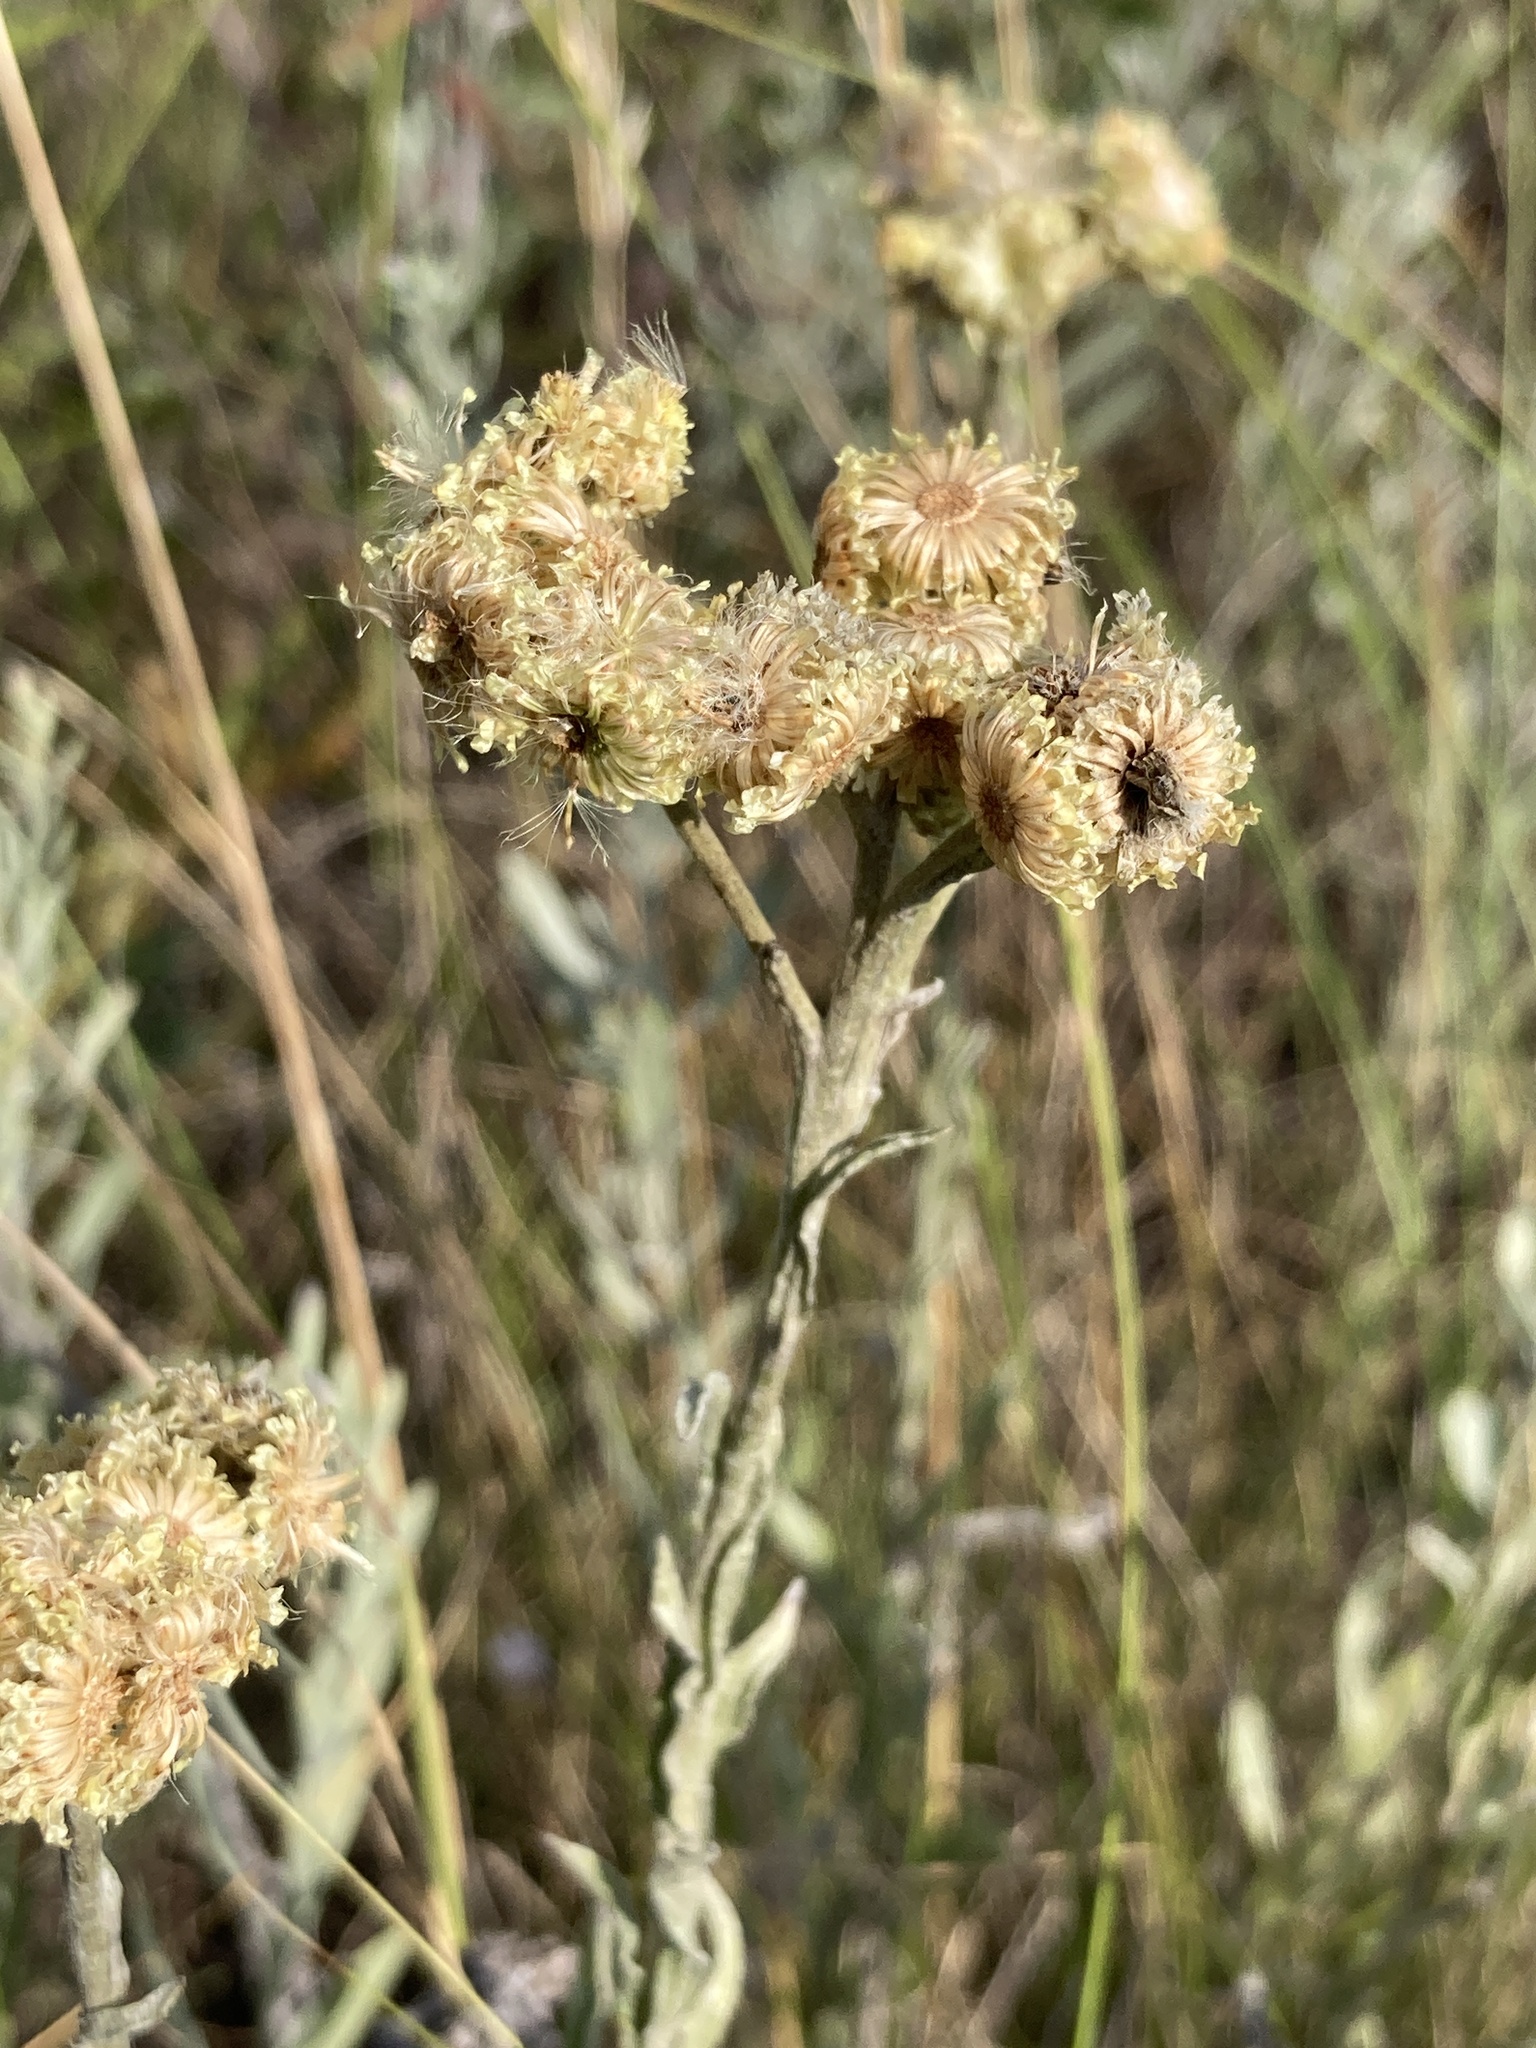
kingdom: Plantae
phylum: Tracheophyta
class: Magnoliopsida
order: Asterales
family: Asteraceae
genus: Helichrysum
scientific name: Helichrysum arenarium
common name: Strawflower
